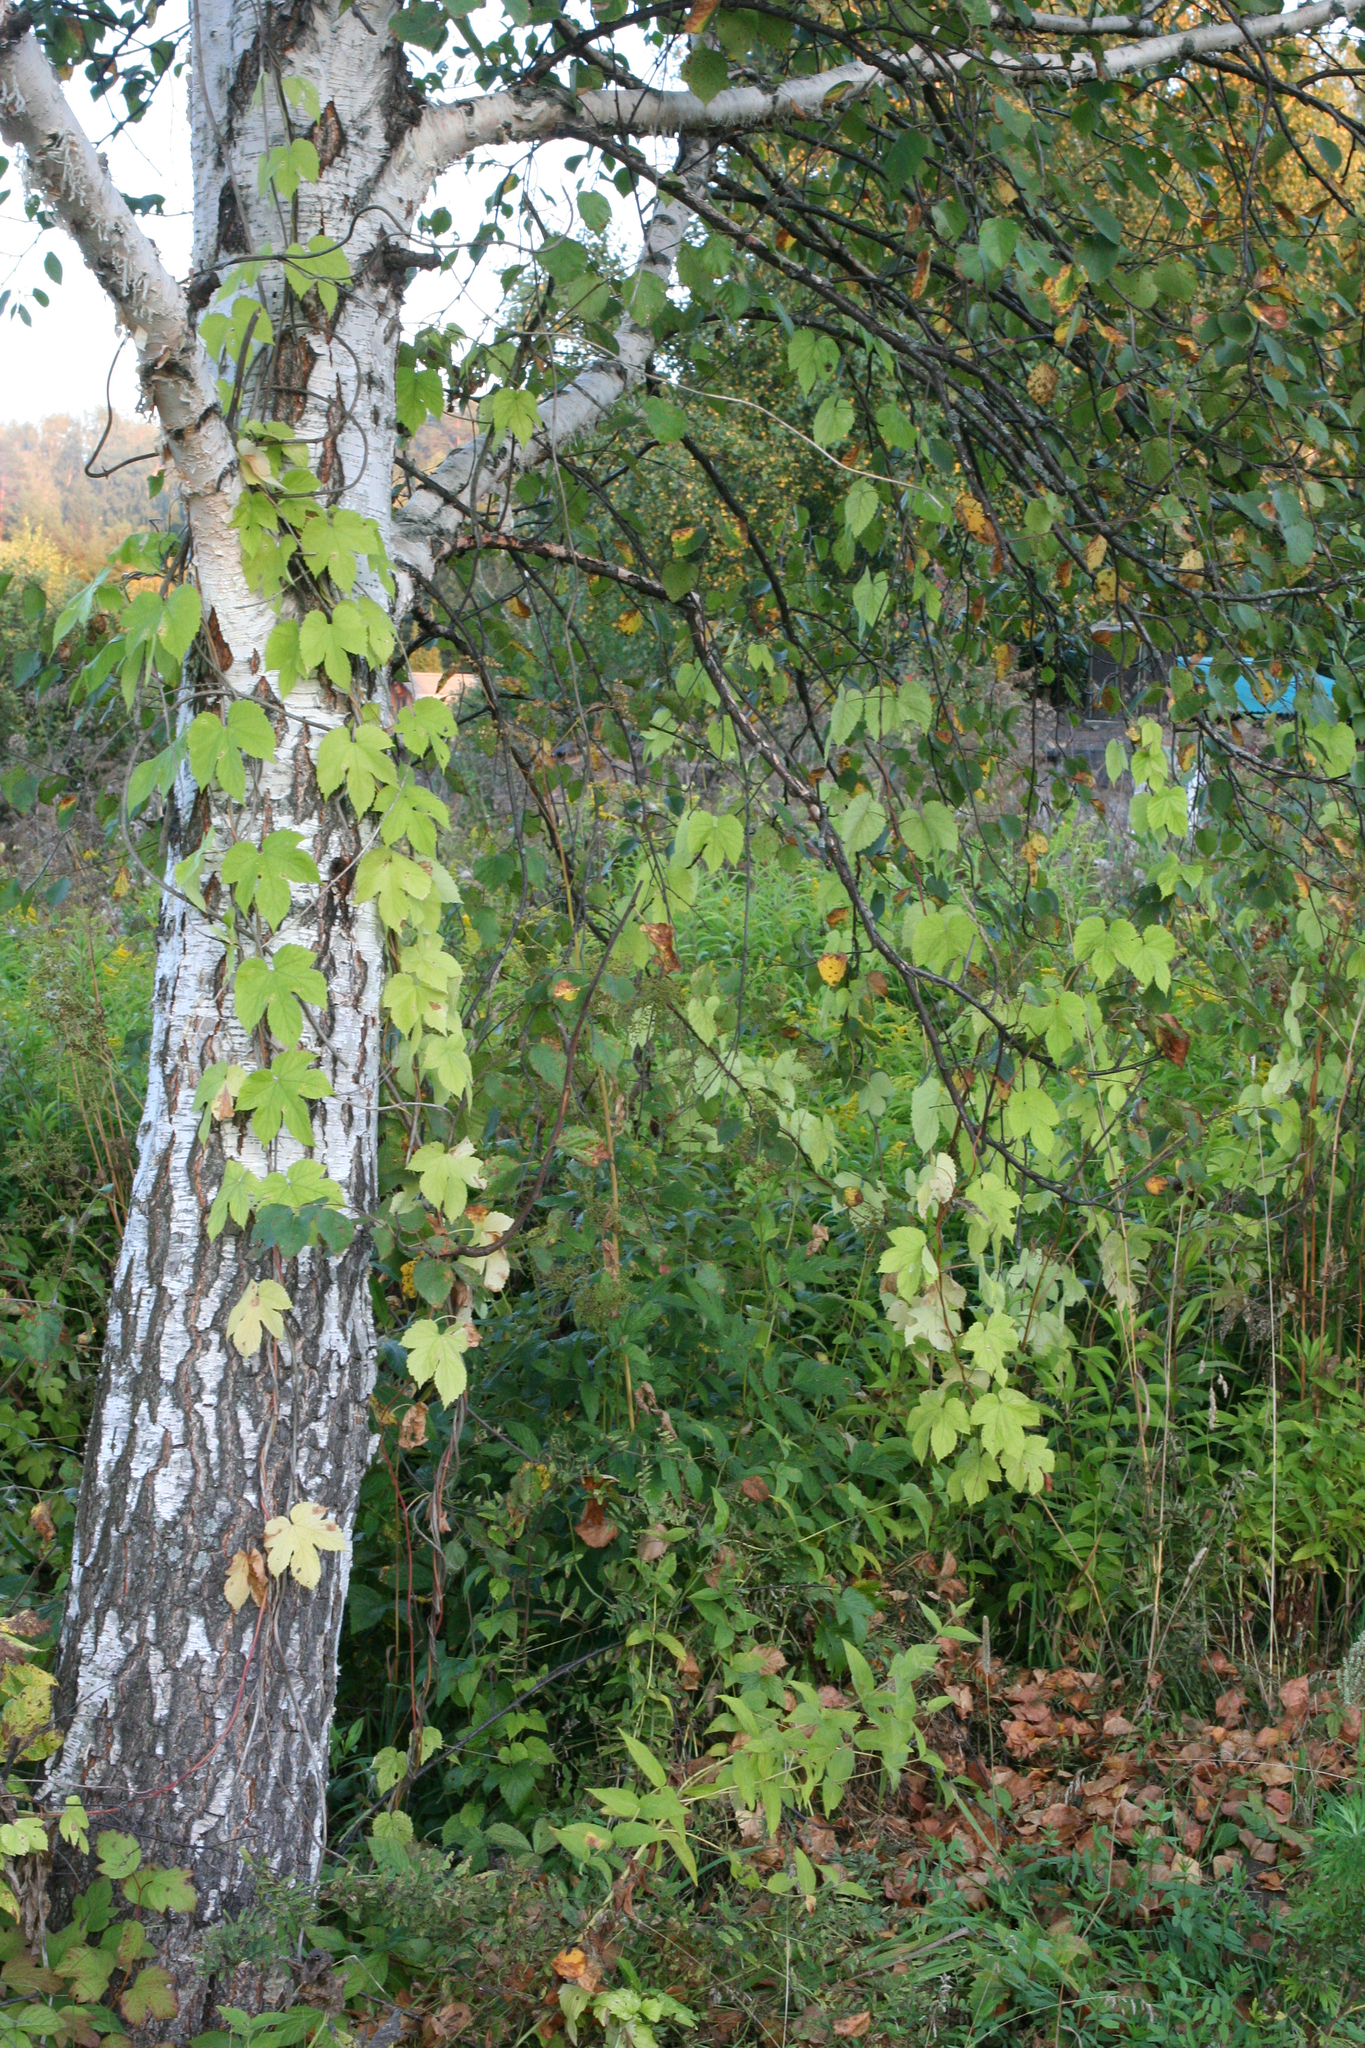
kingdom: Plantae
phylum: Tracheophyta
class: Magnoliopsida
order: Rosales
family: Cannabaceae
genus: Humulus
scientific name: Humulus lupulus
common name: Hop
